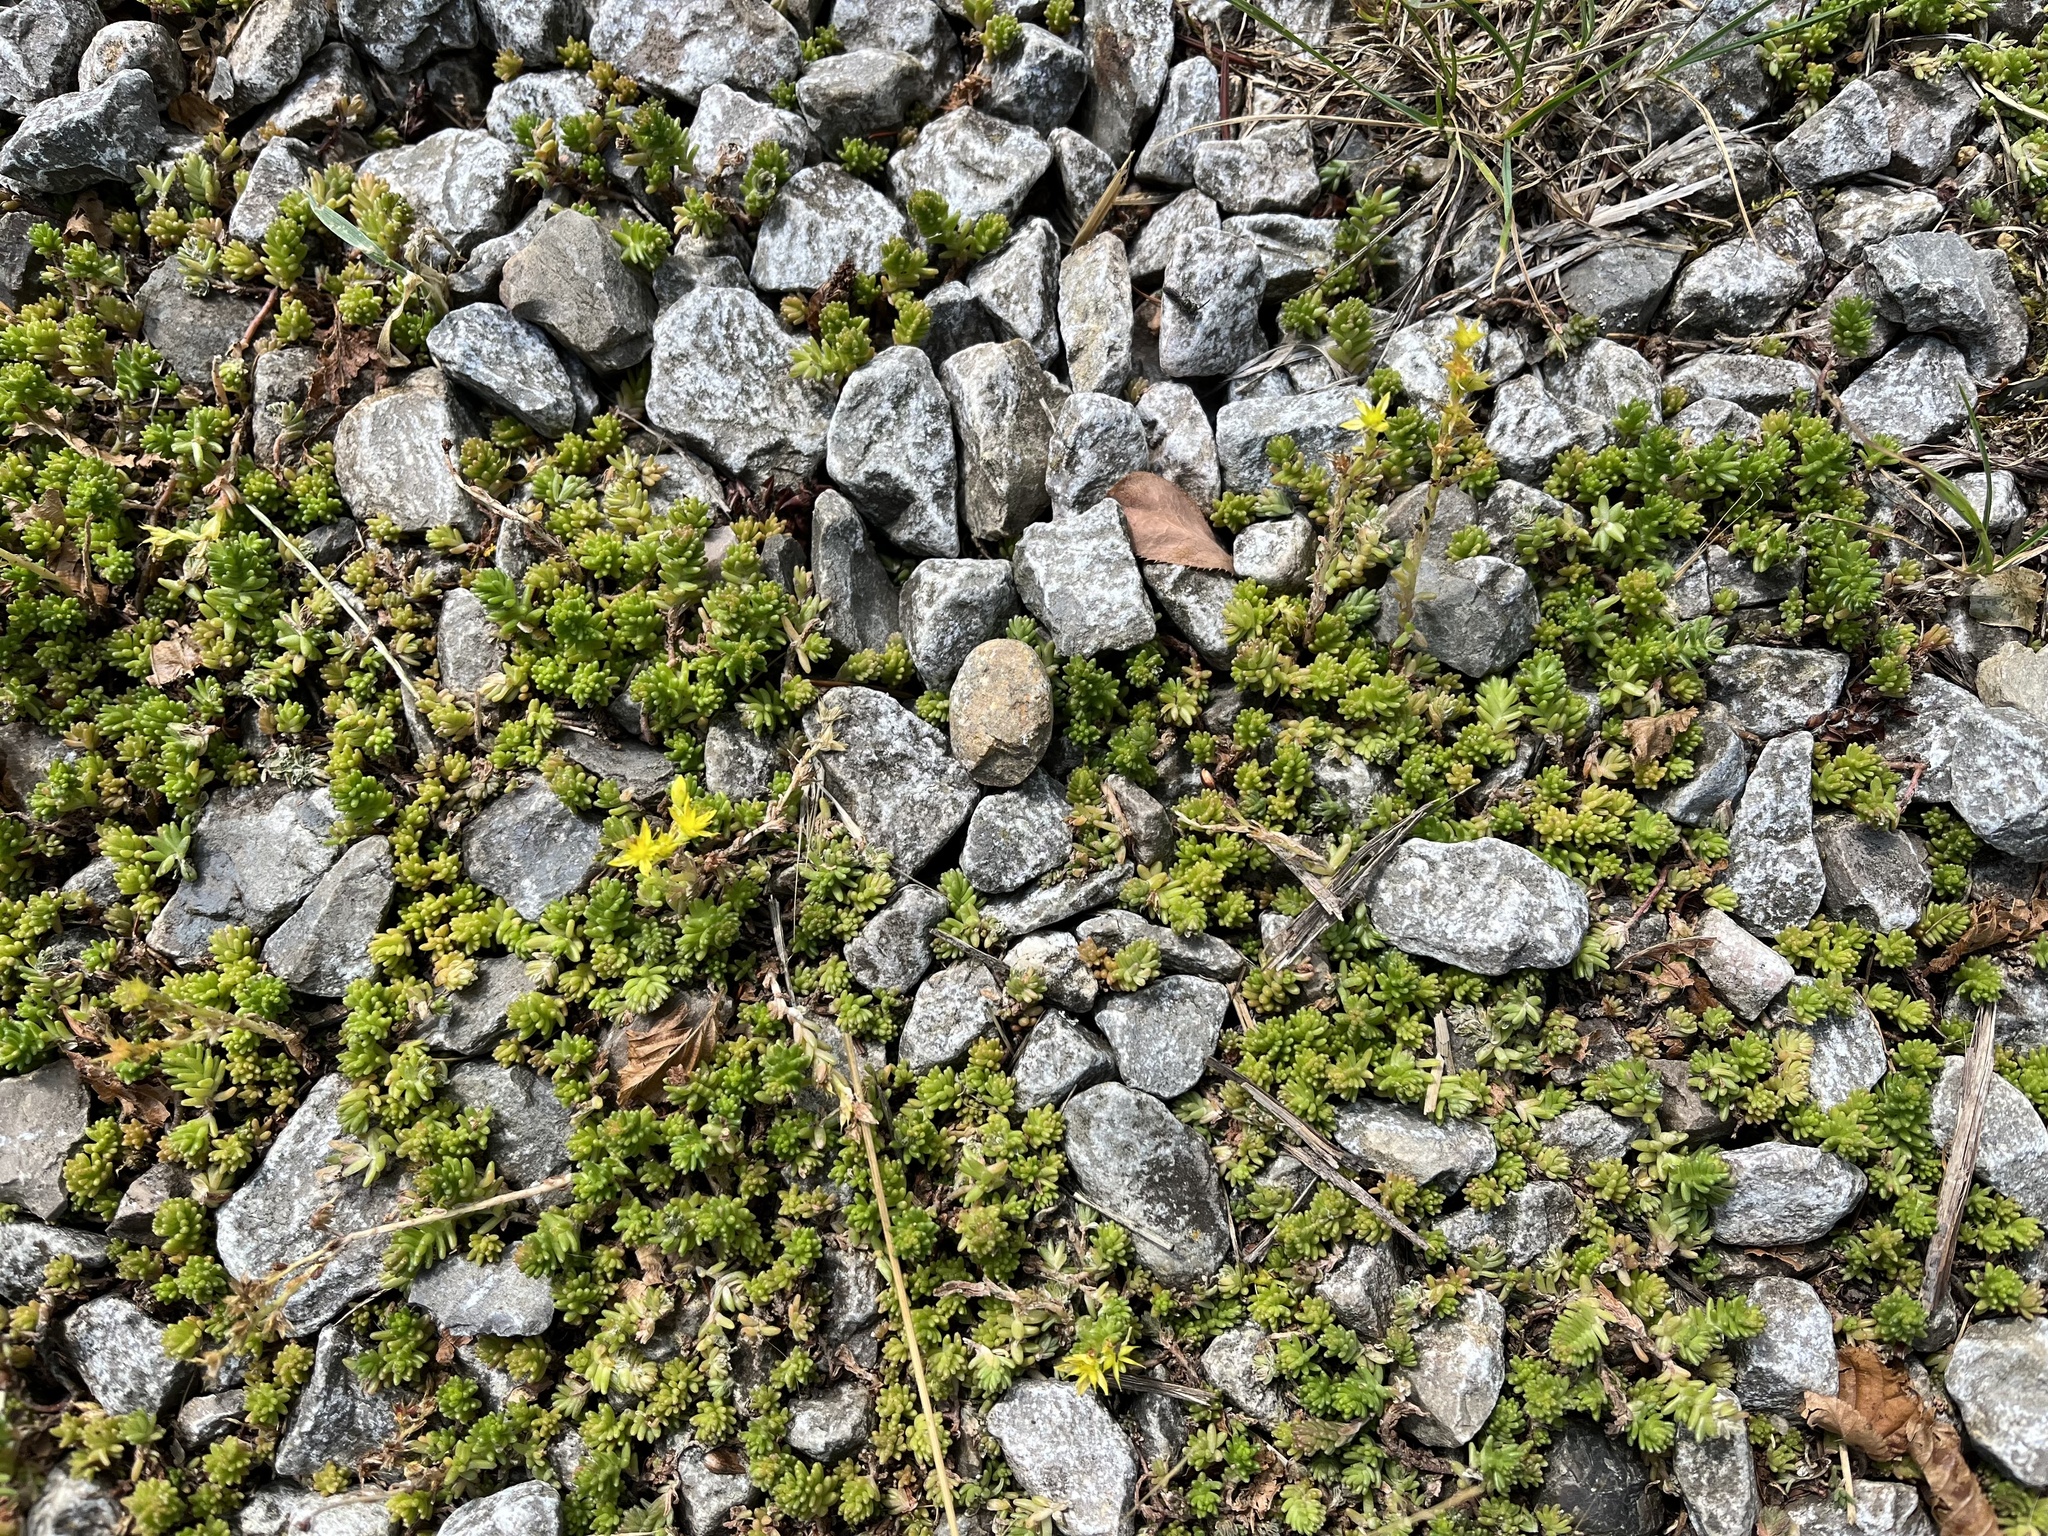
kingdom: Plantae
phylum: Tracheophyta
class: Magnoliopsida
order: Saxifragales
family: Crassulaceae
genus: Sedum
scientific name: Sedum sexangulare
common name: Tasteless stonecrop
